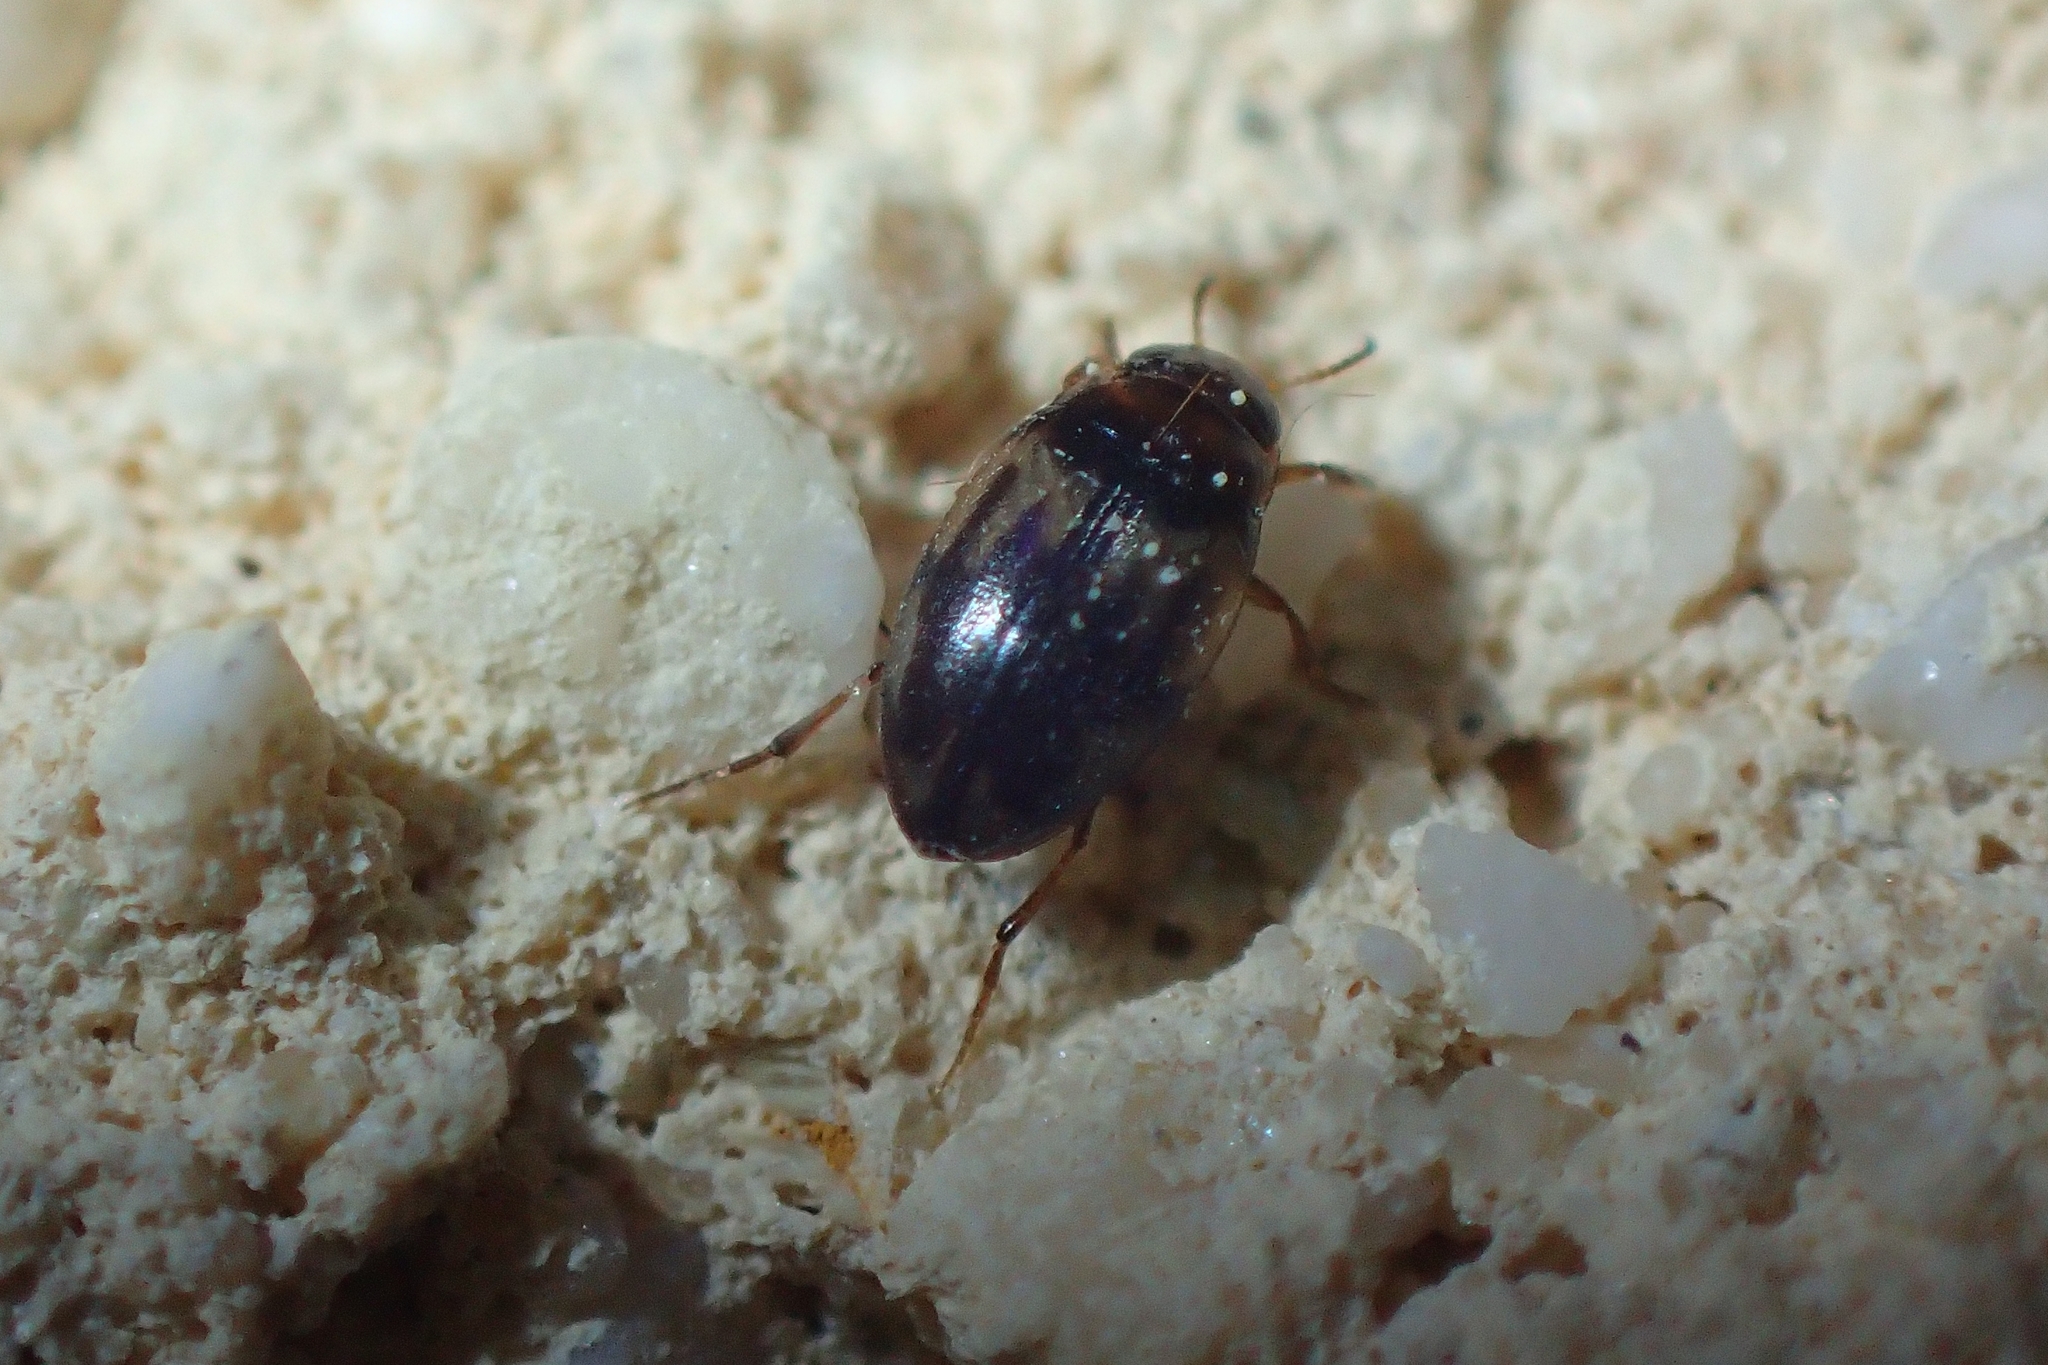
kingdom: Animalia
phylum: Arthropoda
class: Insecta
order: Coleoptera
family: Dytiscidae
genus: Hydroglyphus
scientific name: Hydroglyphus geminus
